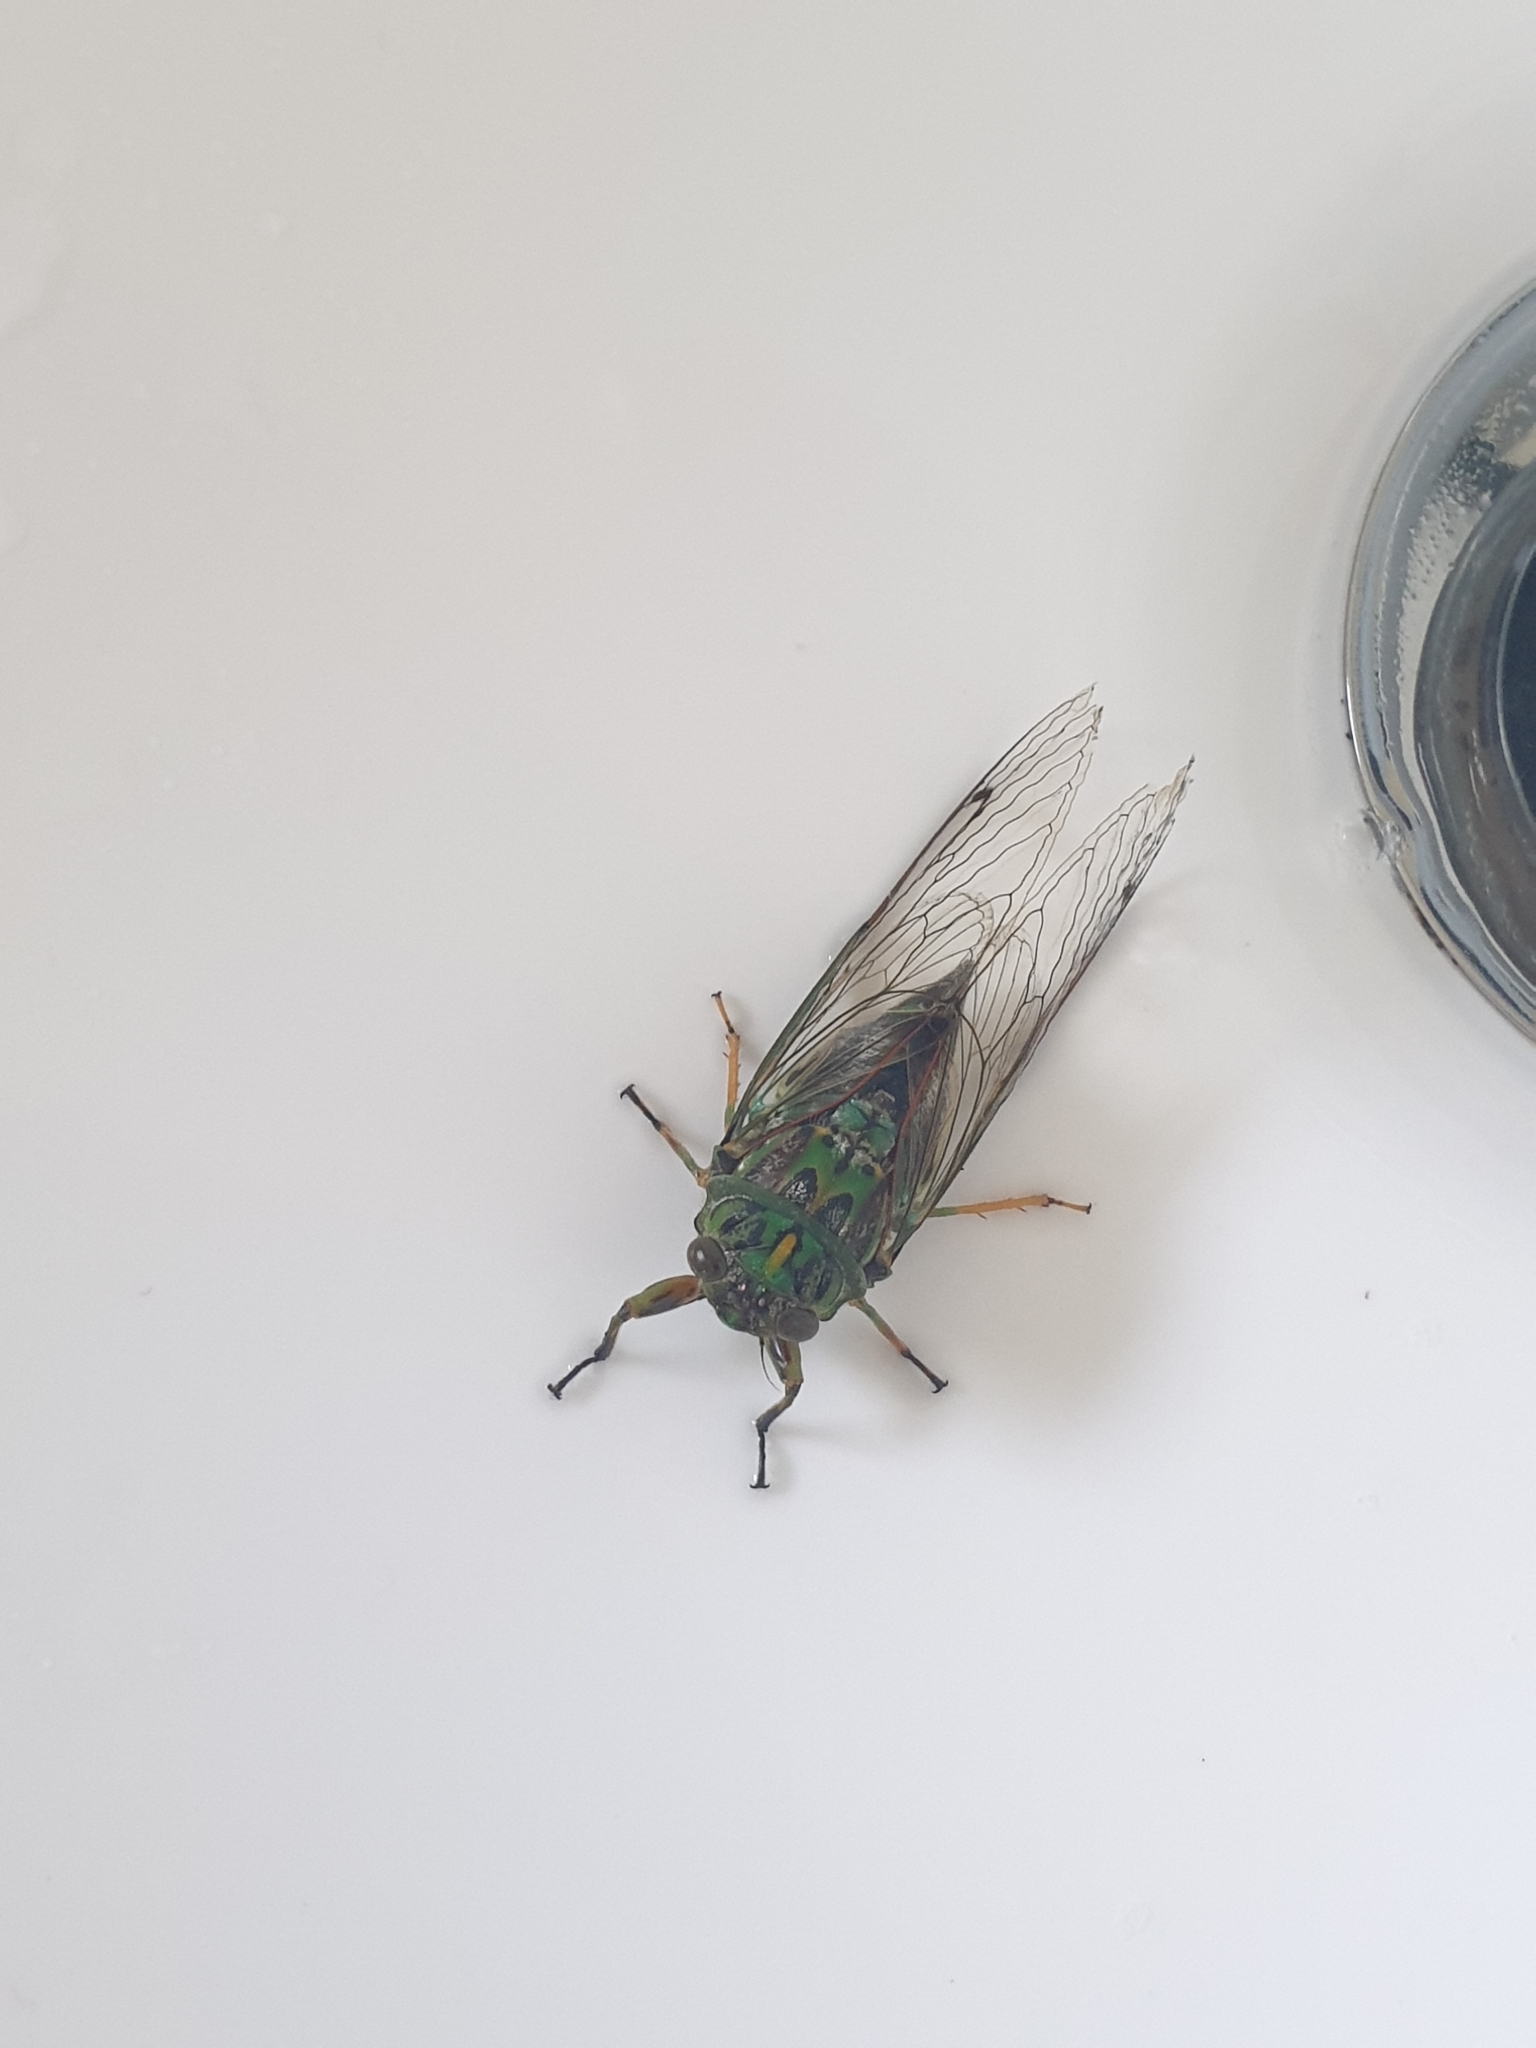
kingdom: Animalia
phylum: Arthropoda
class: Insecta
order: Hemiptera
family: Cicadidae
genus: Amphipsalta
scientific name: Amphipsalta zelandica
